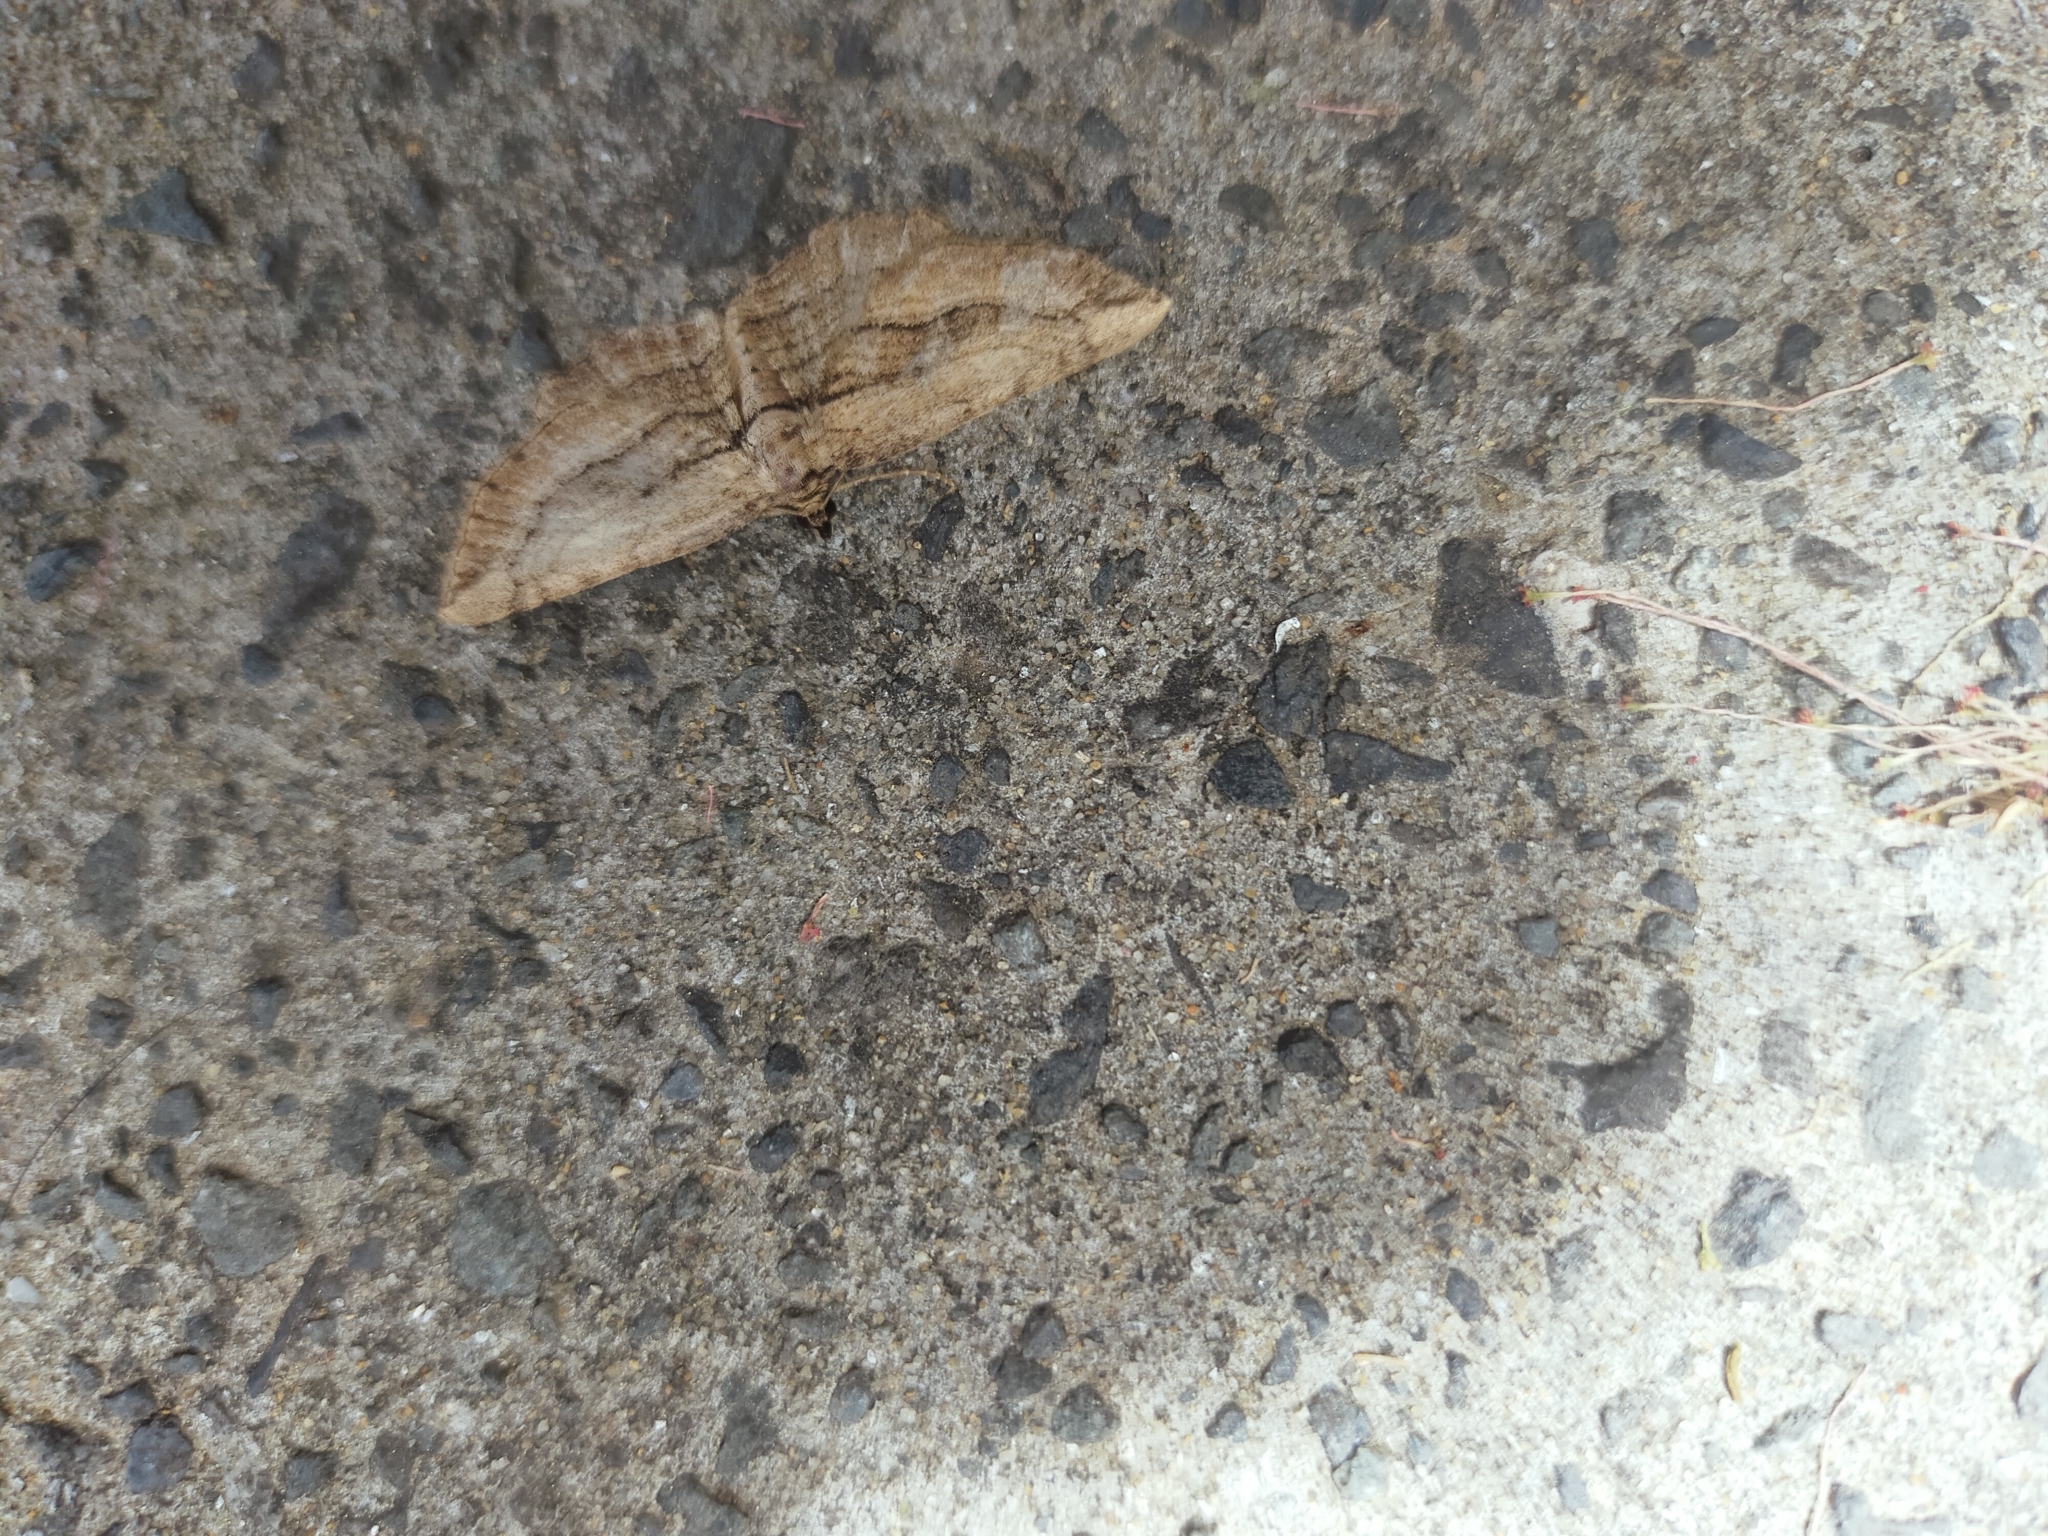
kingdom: Animalia
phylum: Arthropoda
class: Insecta
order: Lepidoptera
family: Geometridae
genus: Horisme
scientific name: Horisme corticata
